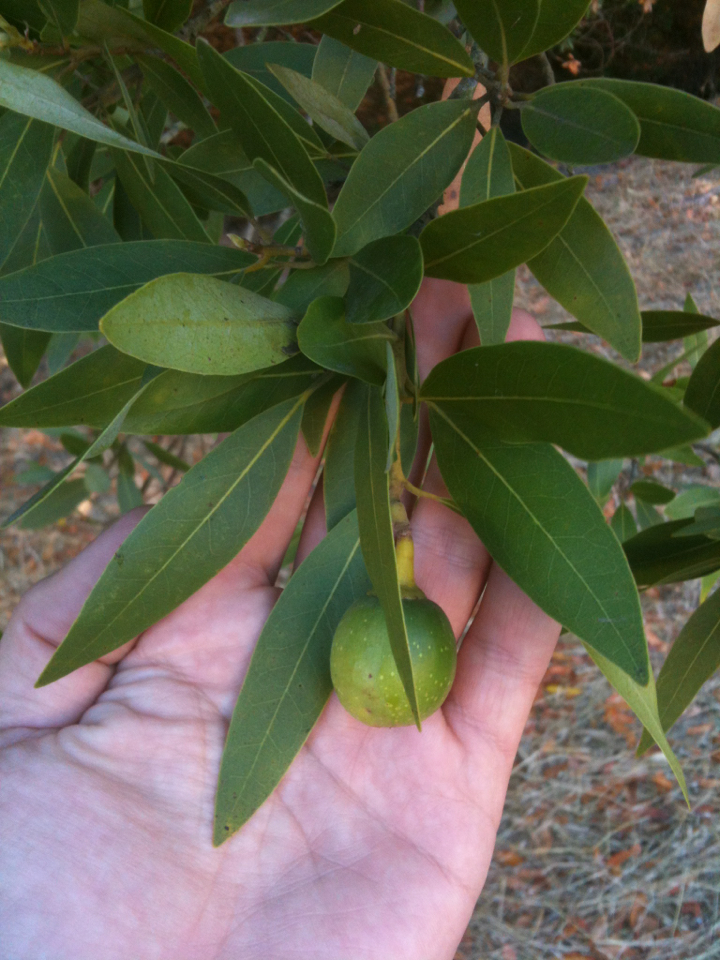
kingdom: Plantae
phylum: Tracheophyta
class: Magnoliopsida
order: Laurales
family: Lauraceae
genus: Umbellularia
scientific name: Umbellularia californica
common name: California bay
